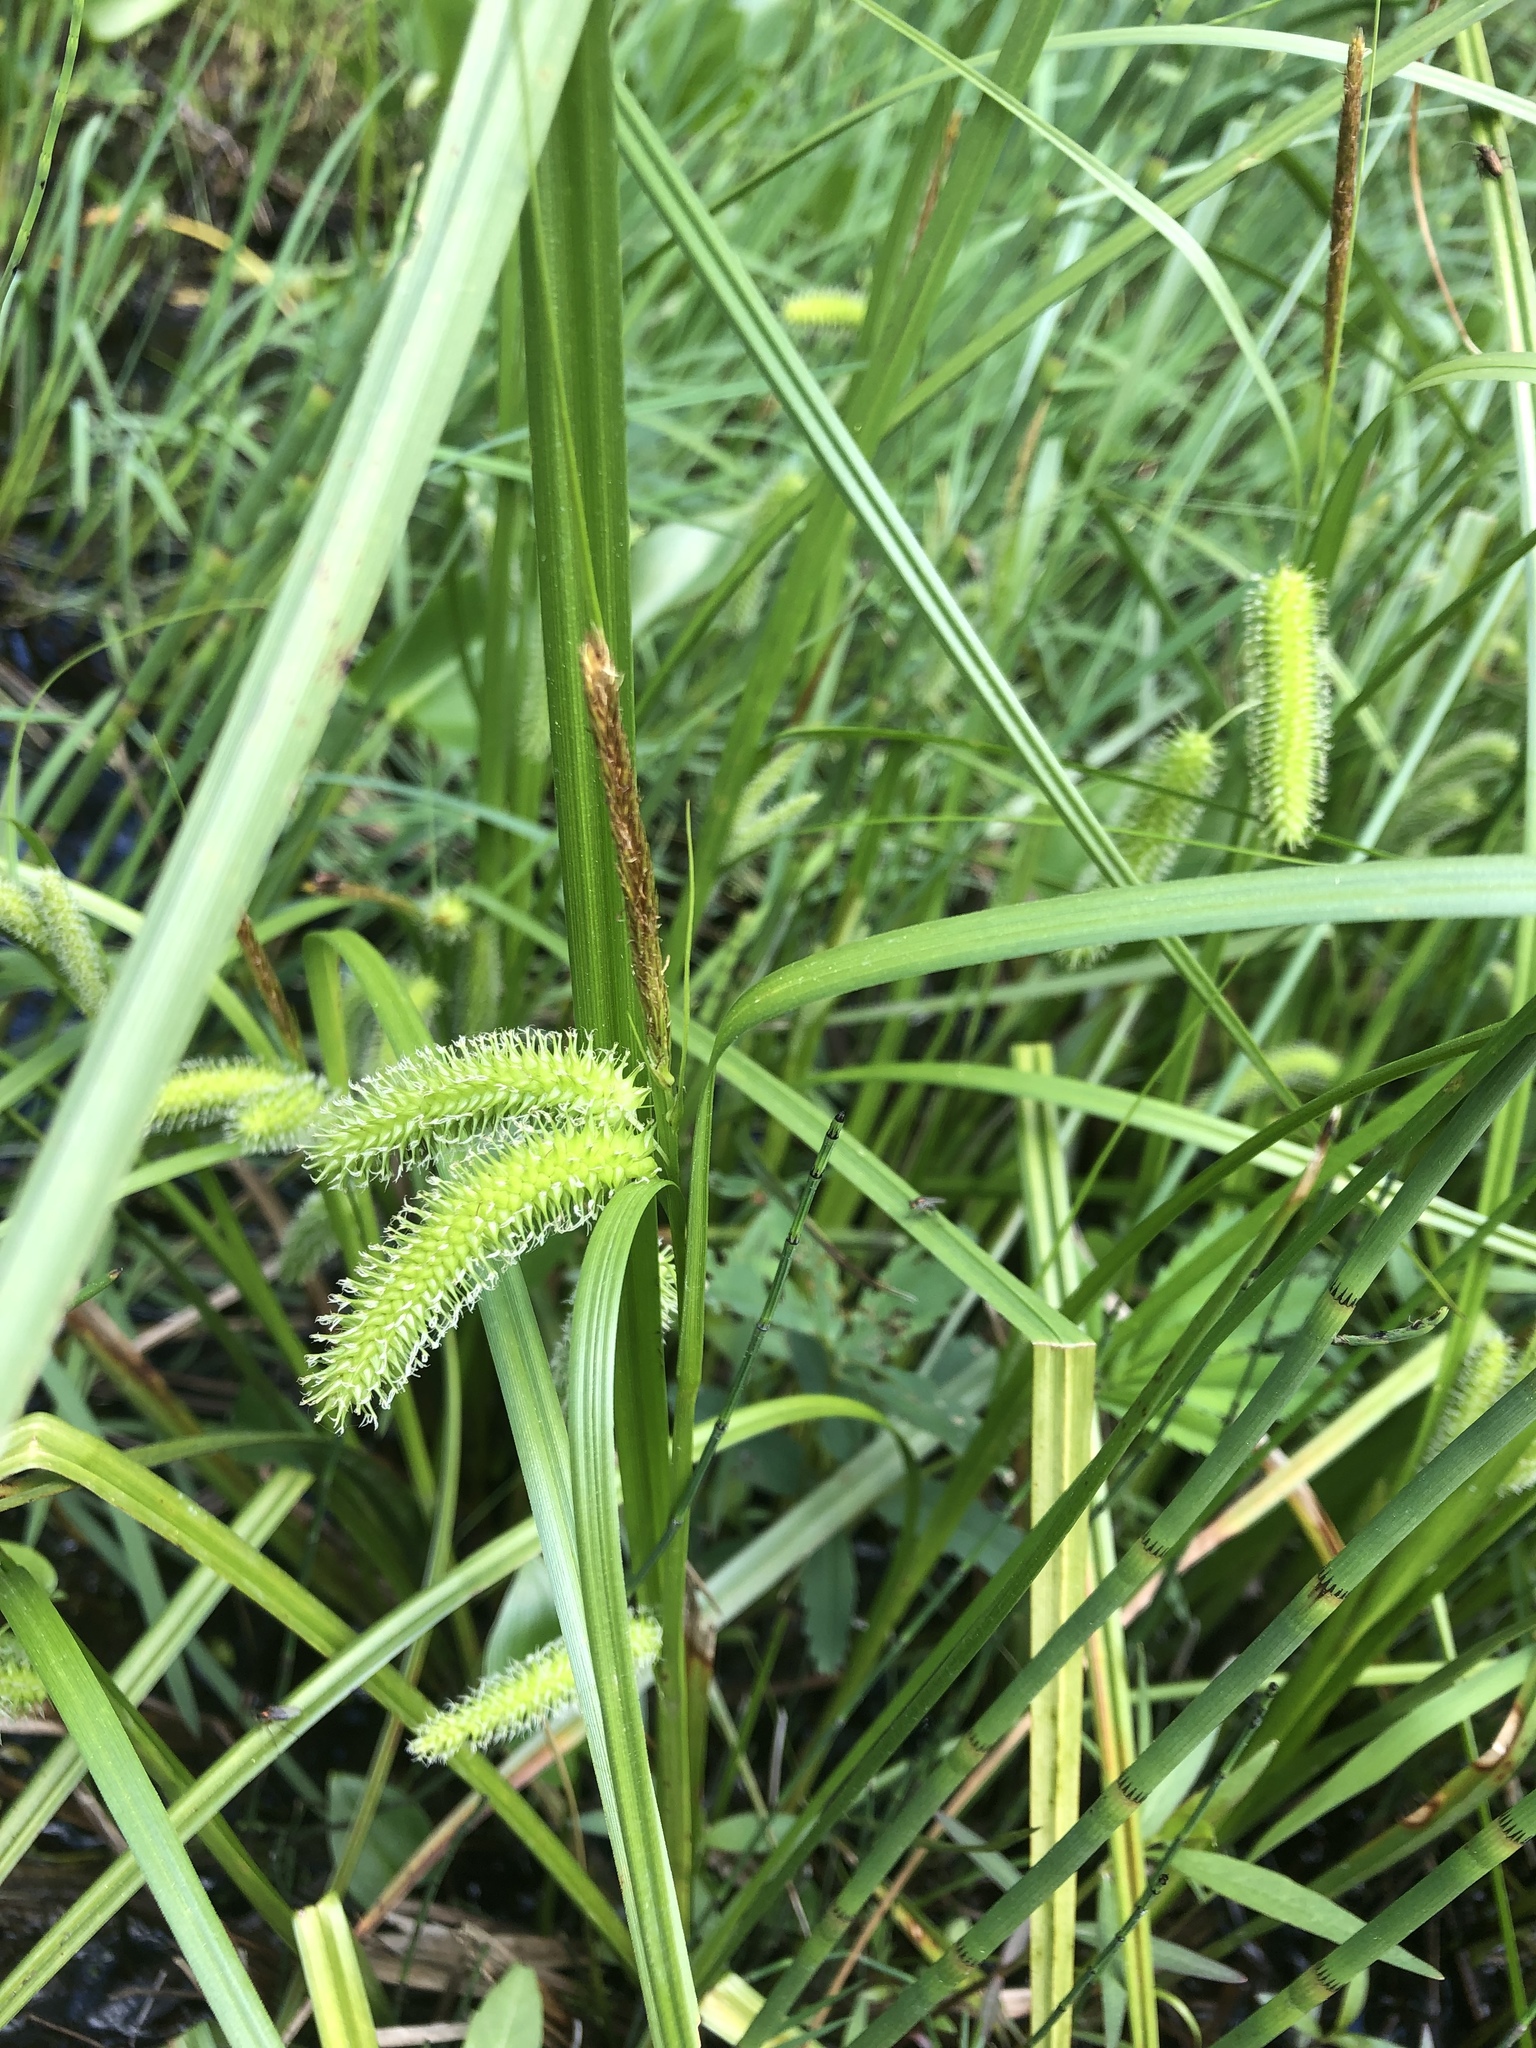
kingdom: Plantae
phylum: Tracheophyta
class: Liliopsida
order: Poales
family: Cyperaceae
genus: Carex
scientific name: Carex comosa
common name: Bristly sedge
